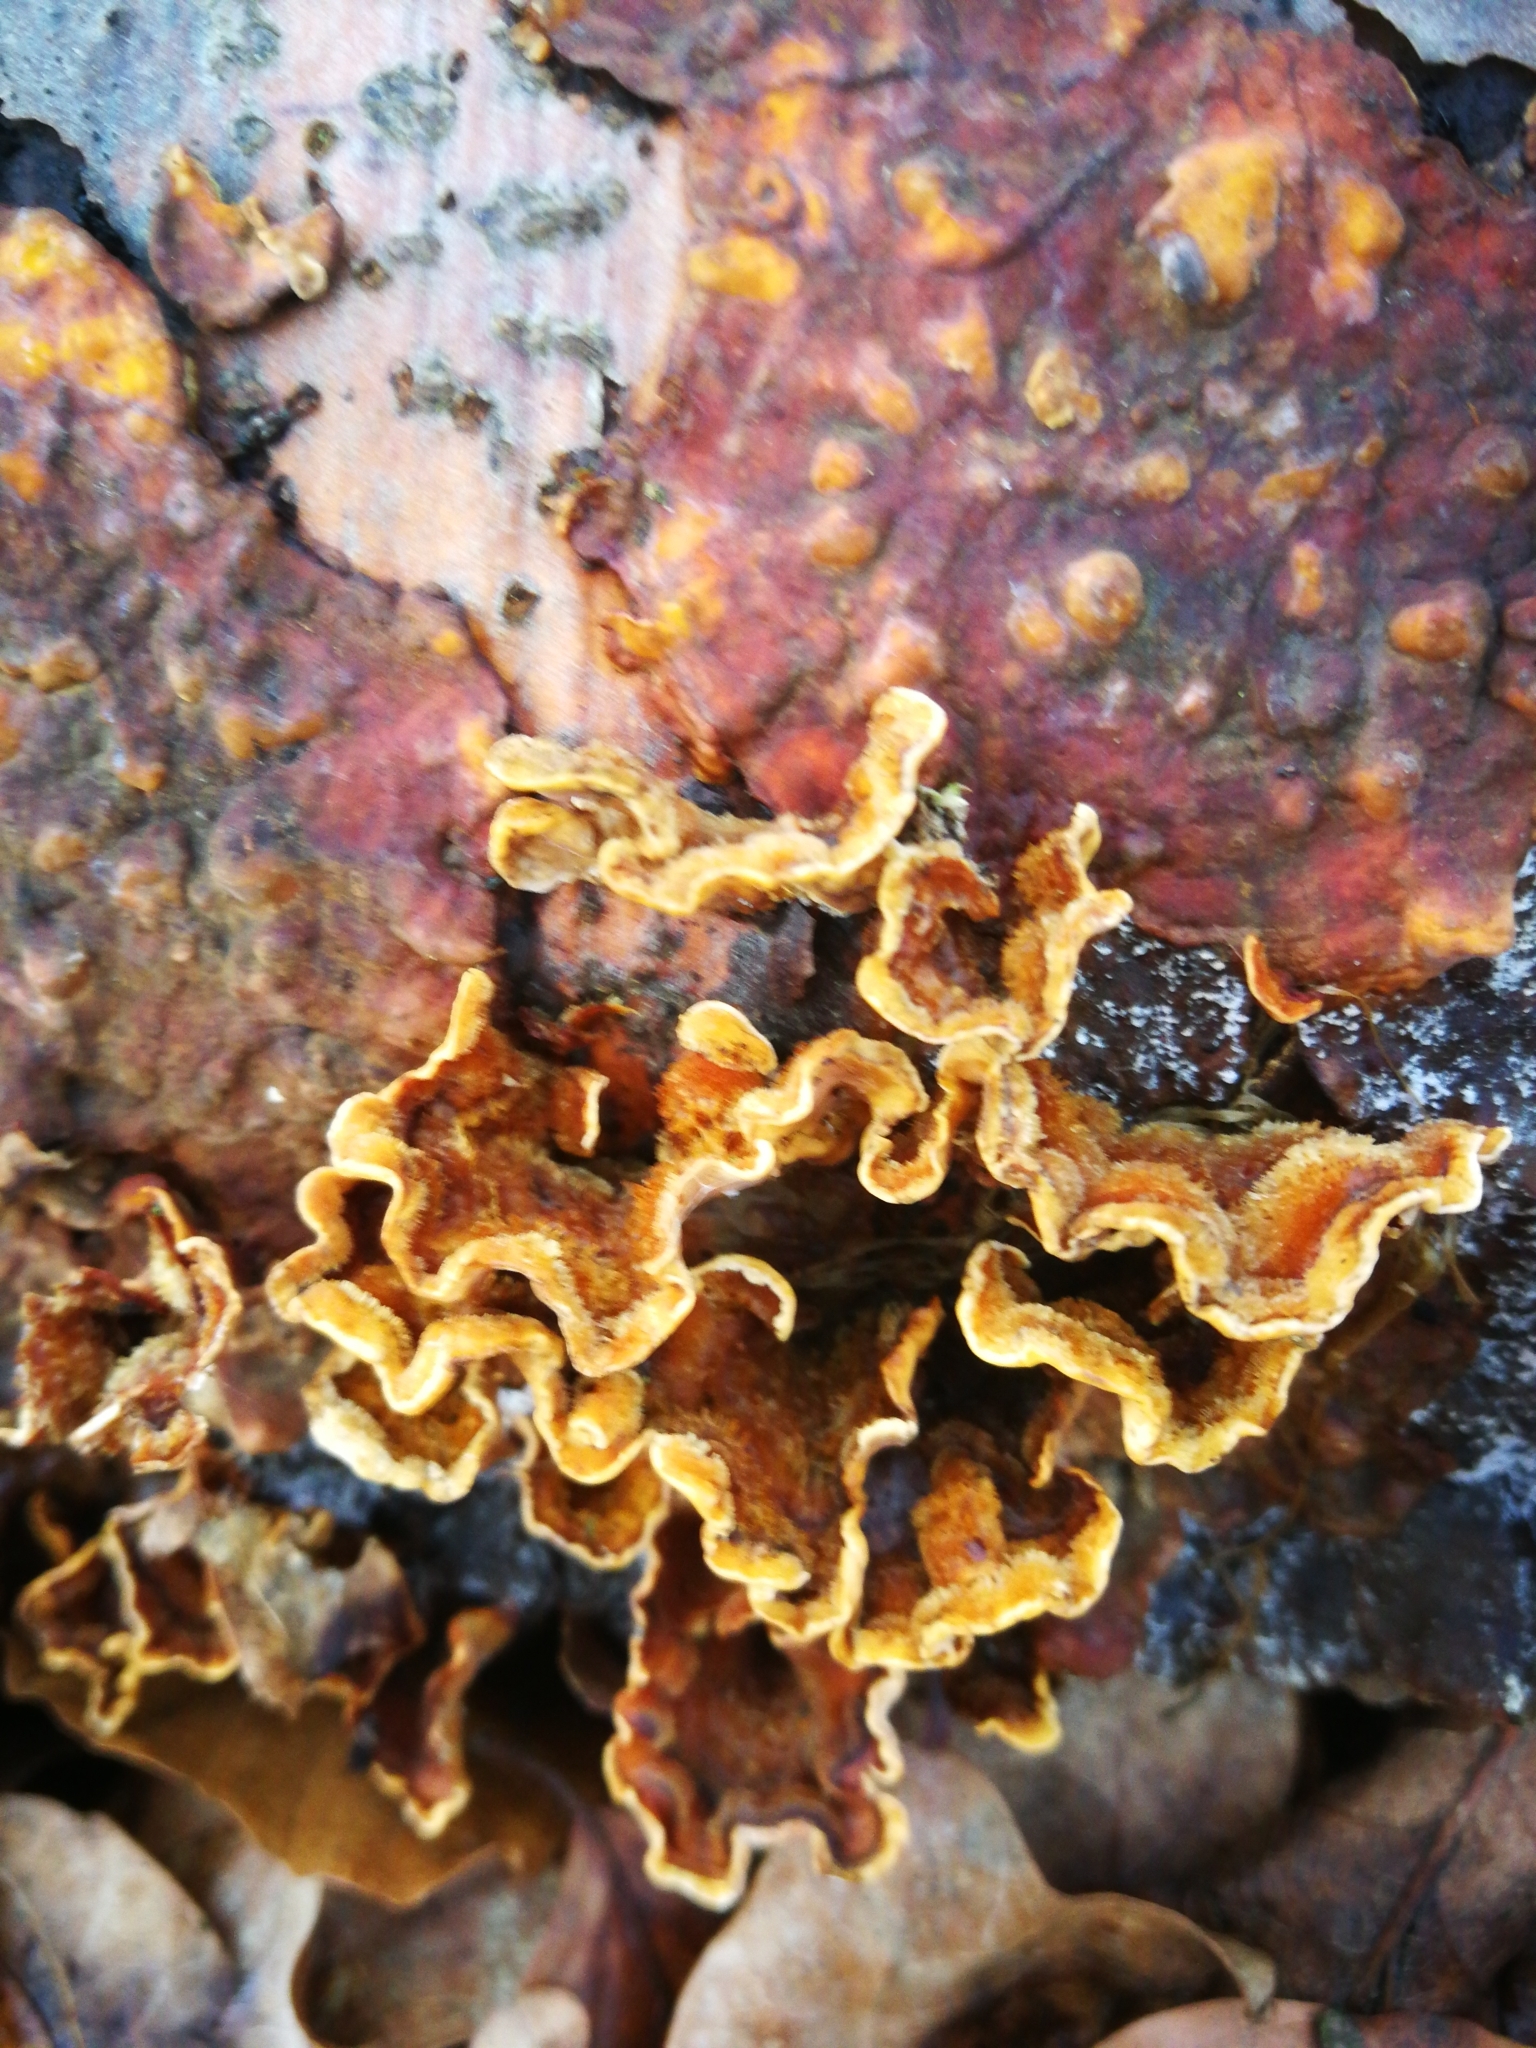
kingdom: Fungi
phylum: Basidiomycota
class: Agaricomycetes
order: Russulales
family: Stereaceae
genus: Stereum
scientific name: Stereum hirsutum
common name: Hairy curtain crust
